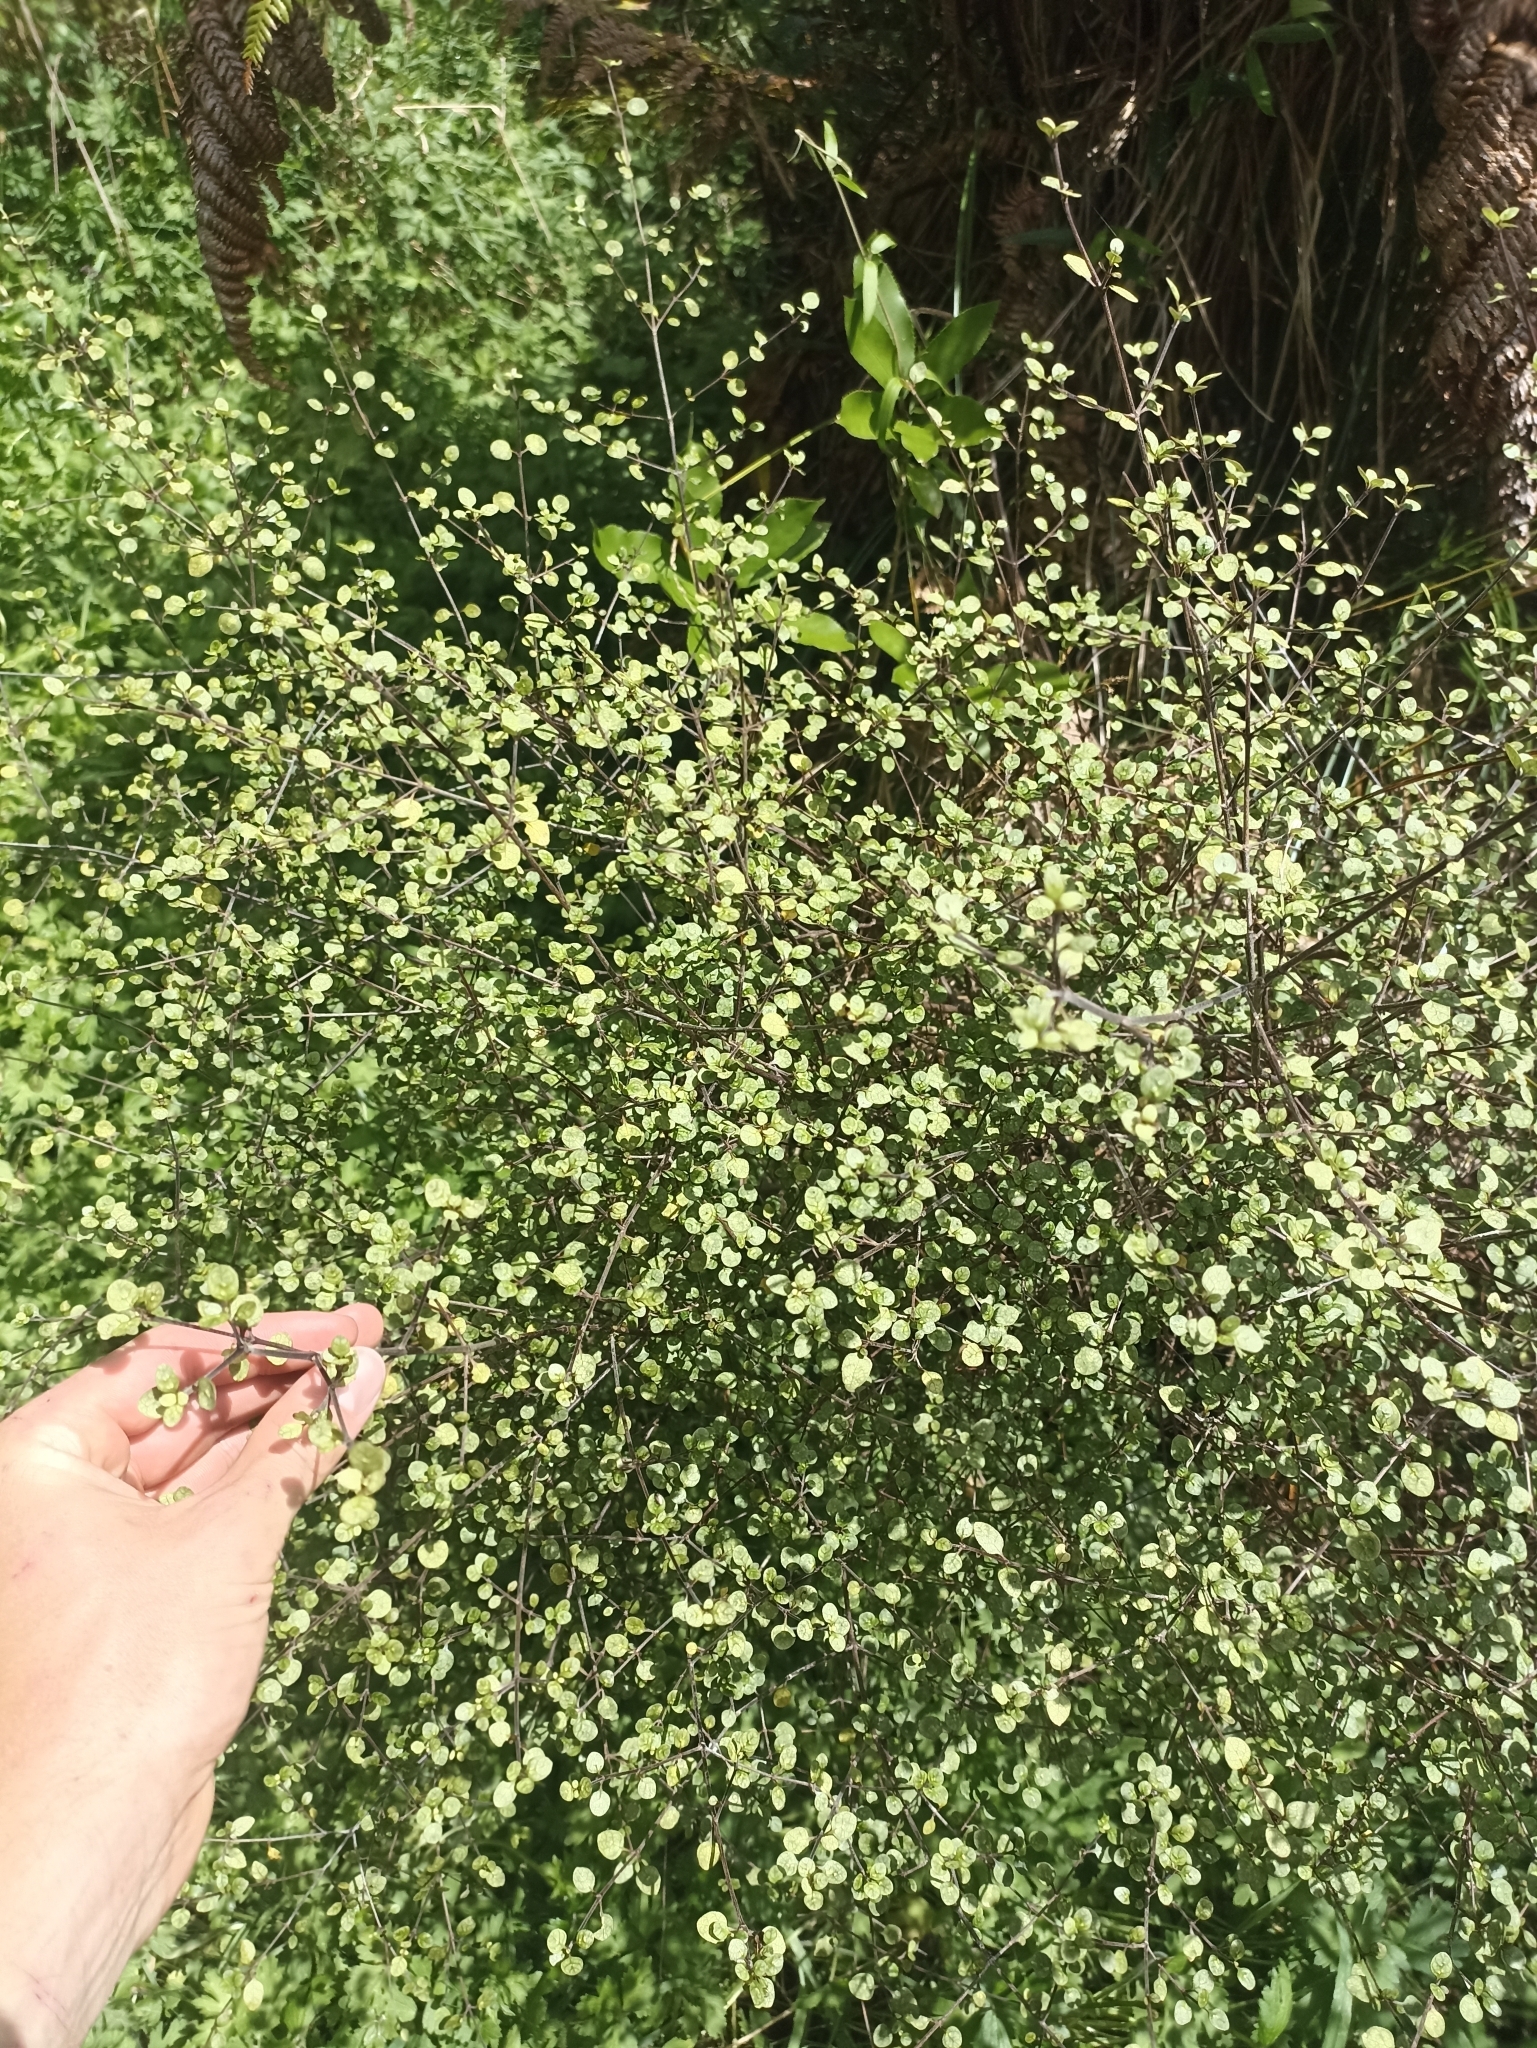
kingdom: Plantae
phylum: Tracheophyta
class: Magnoliopsida
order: Gentianales
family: Rubiaceae
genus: Coprosma
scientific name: Coprosma tenuicaulis
